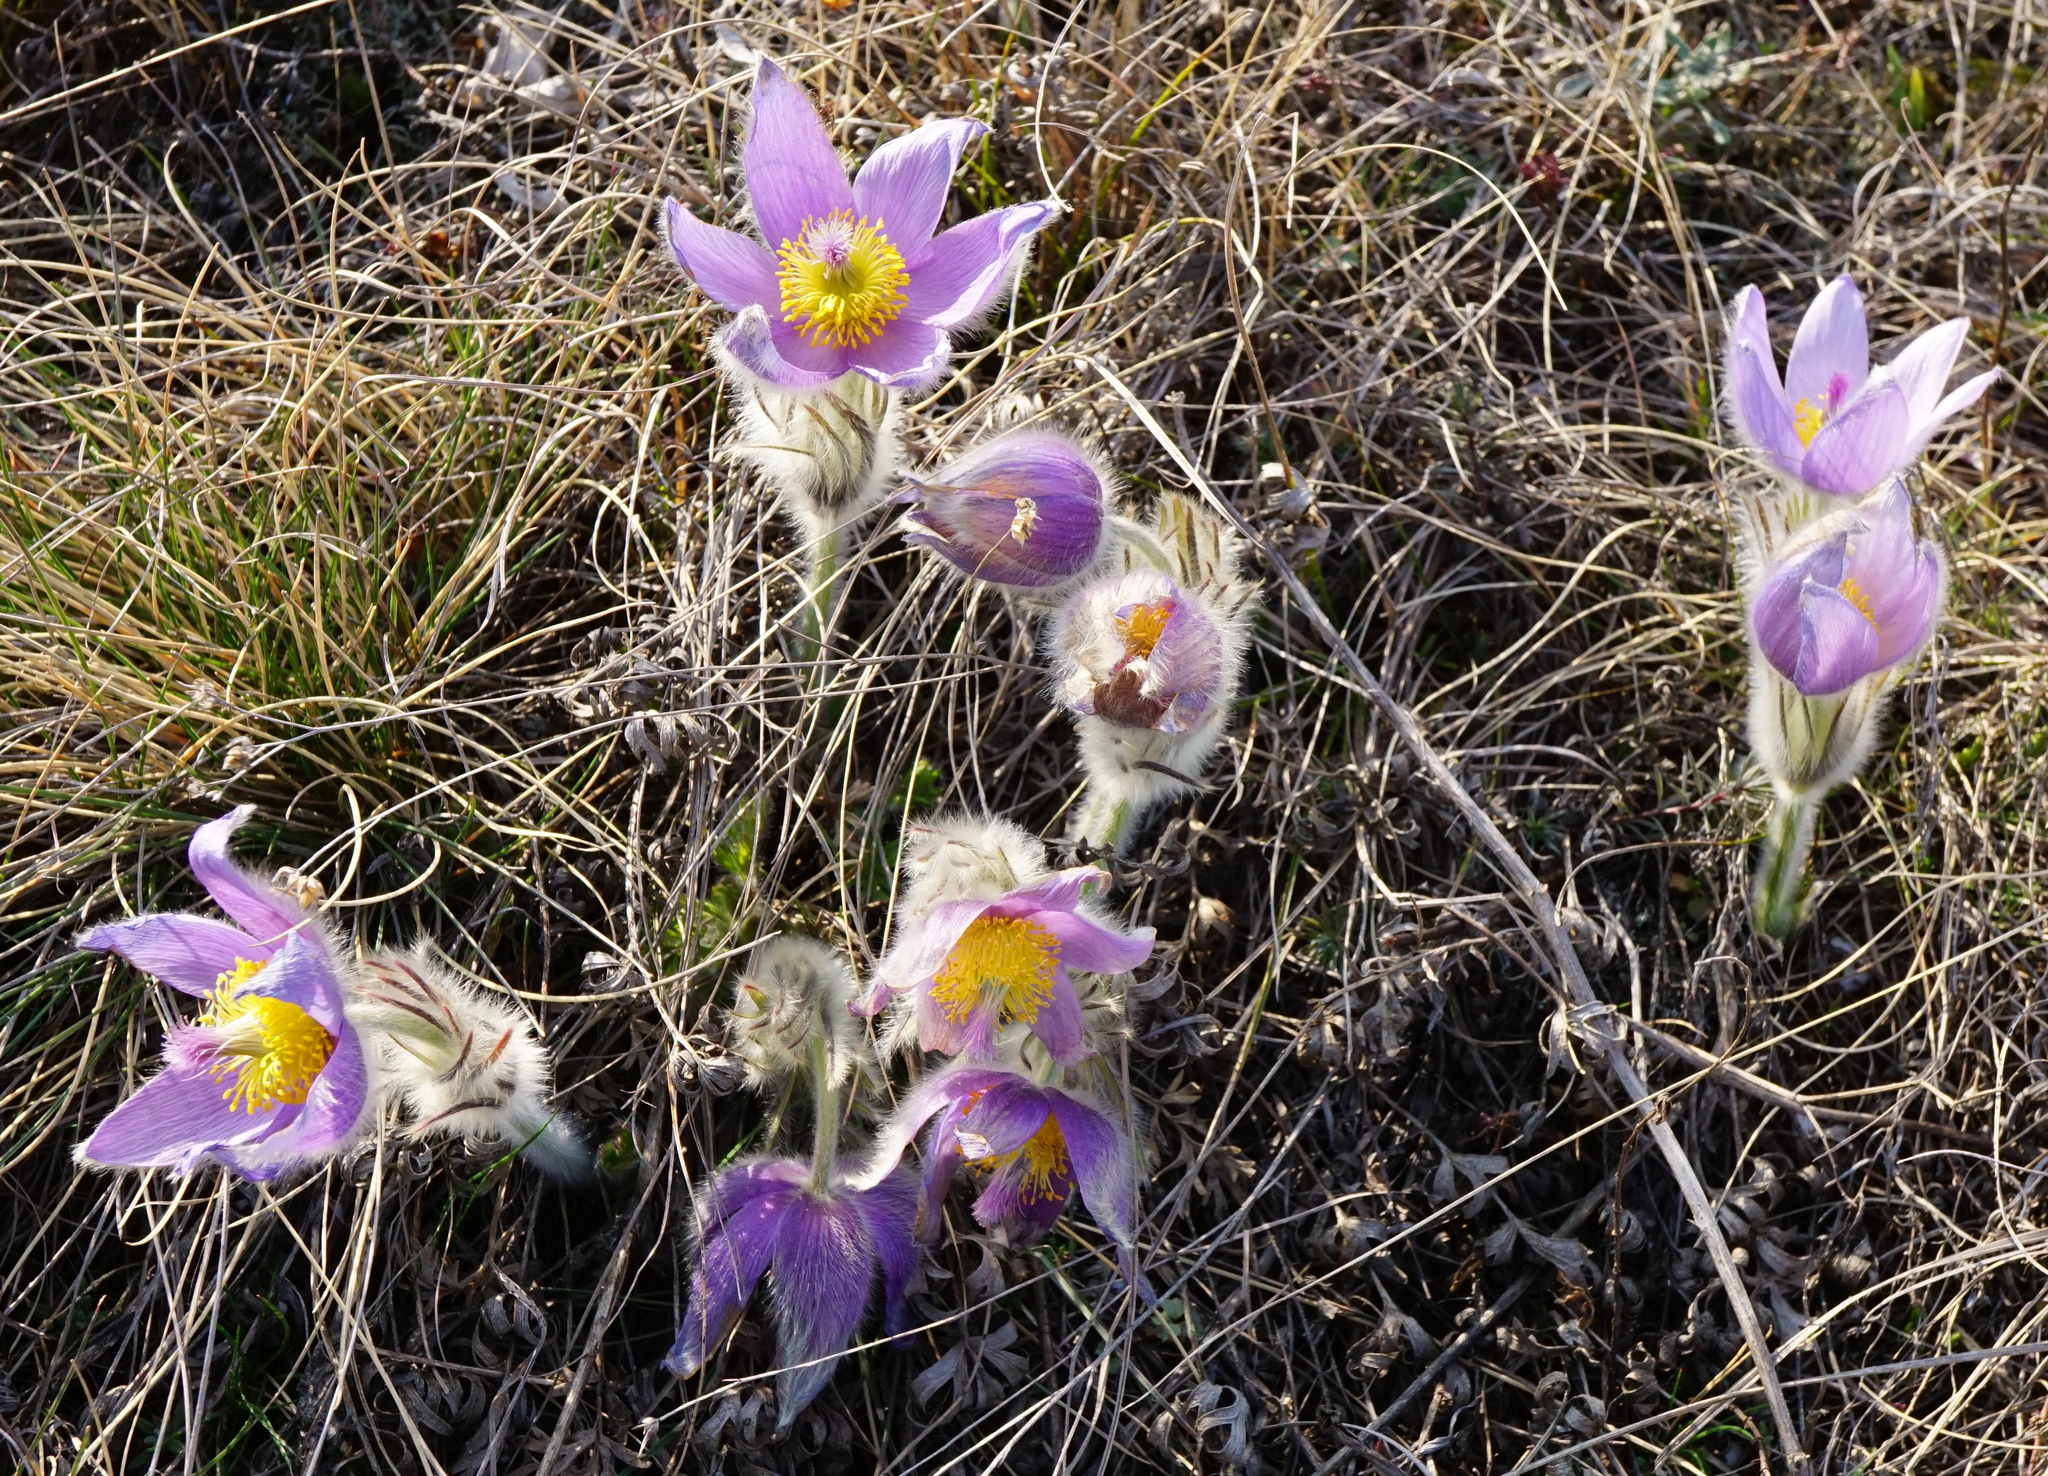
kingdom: Plantae
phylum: Tracheophyta
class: Magnoliopsida
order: Ranunculales
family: Ranunculaceae
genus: Pulsatilla
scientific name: Pulsatilla grandis
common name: Greater pasque flower
